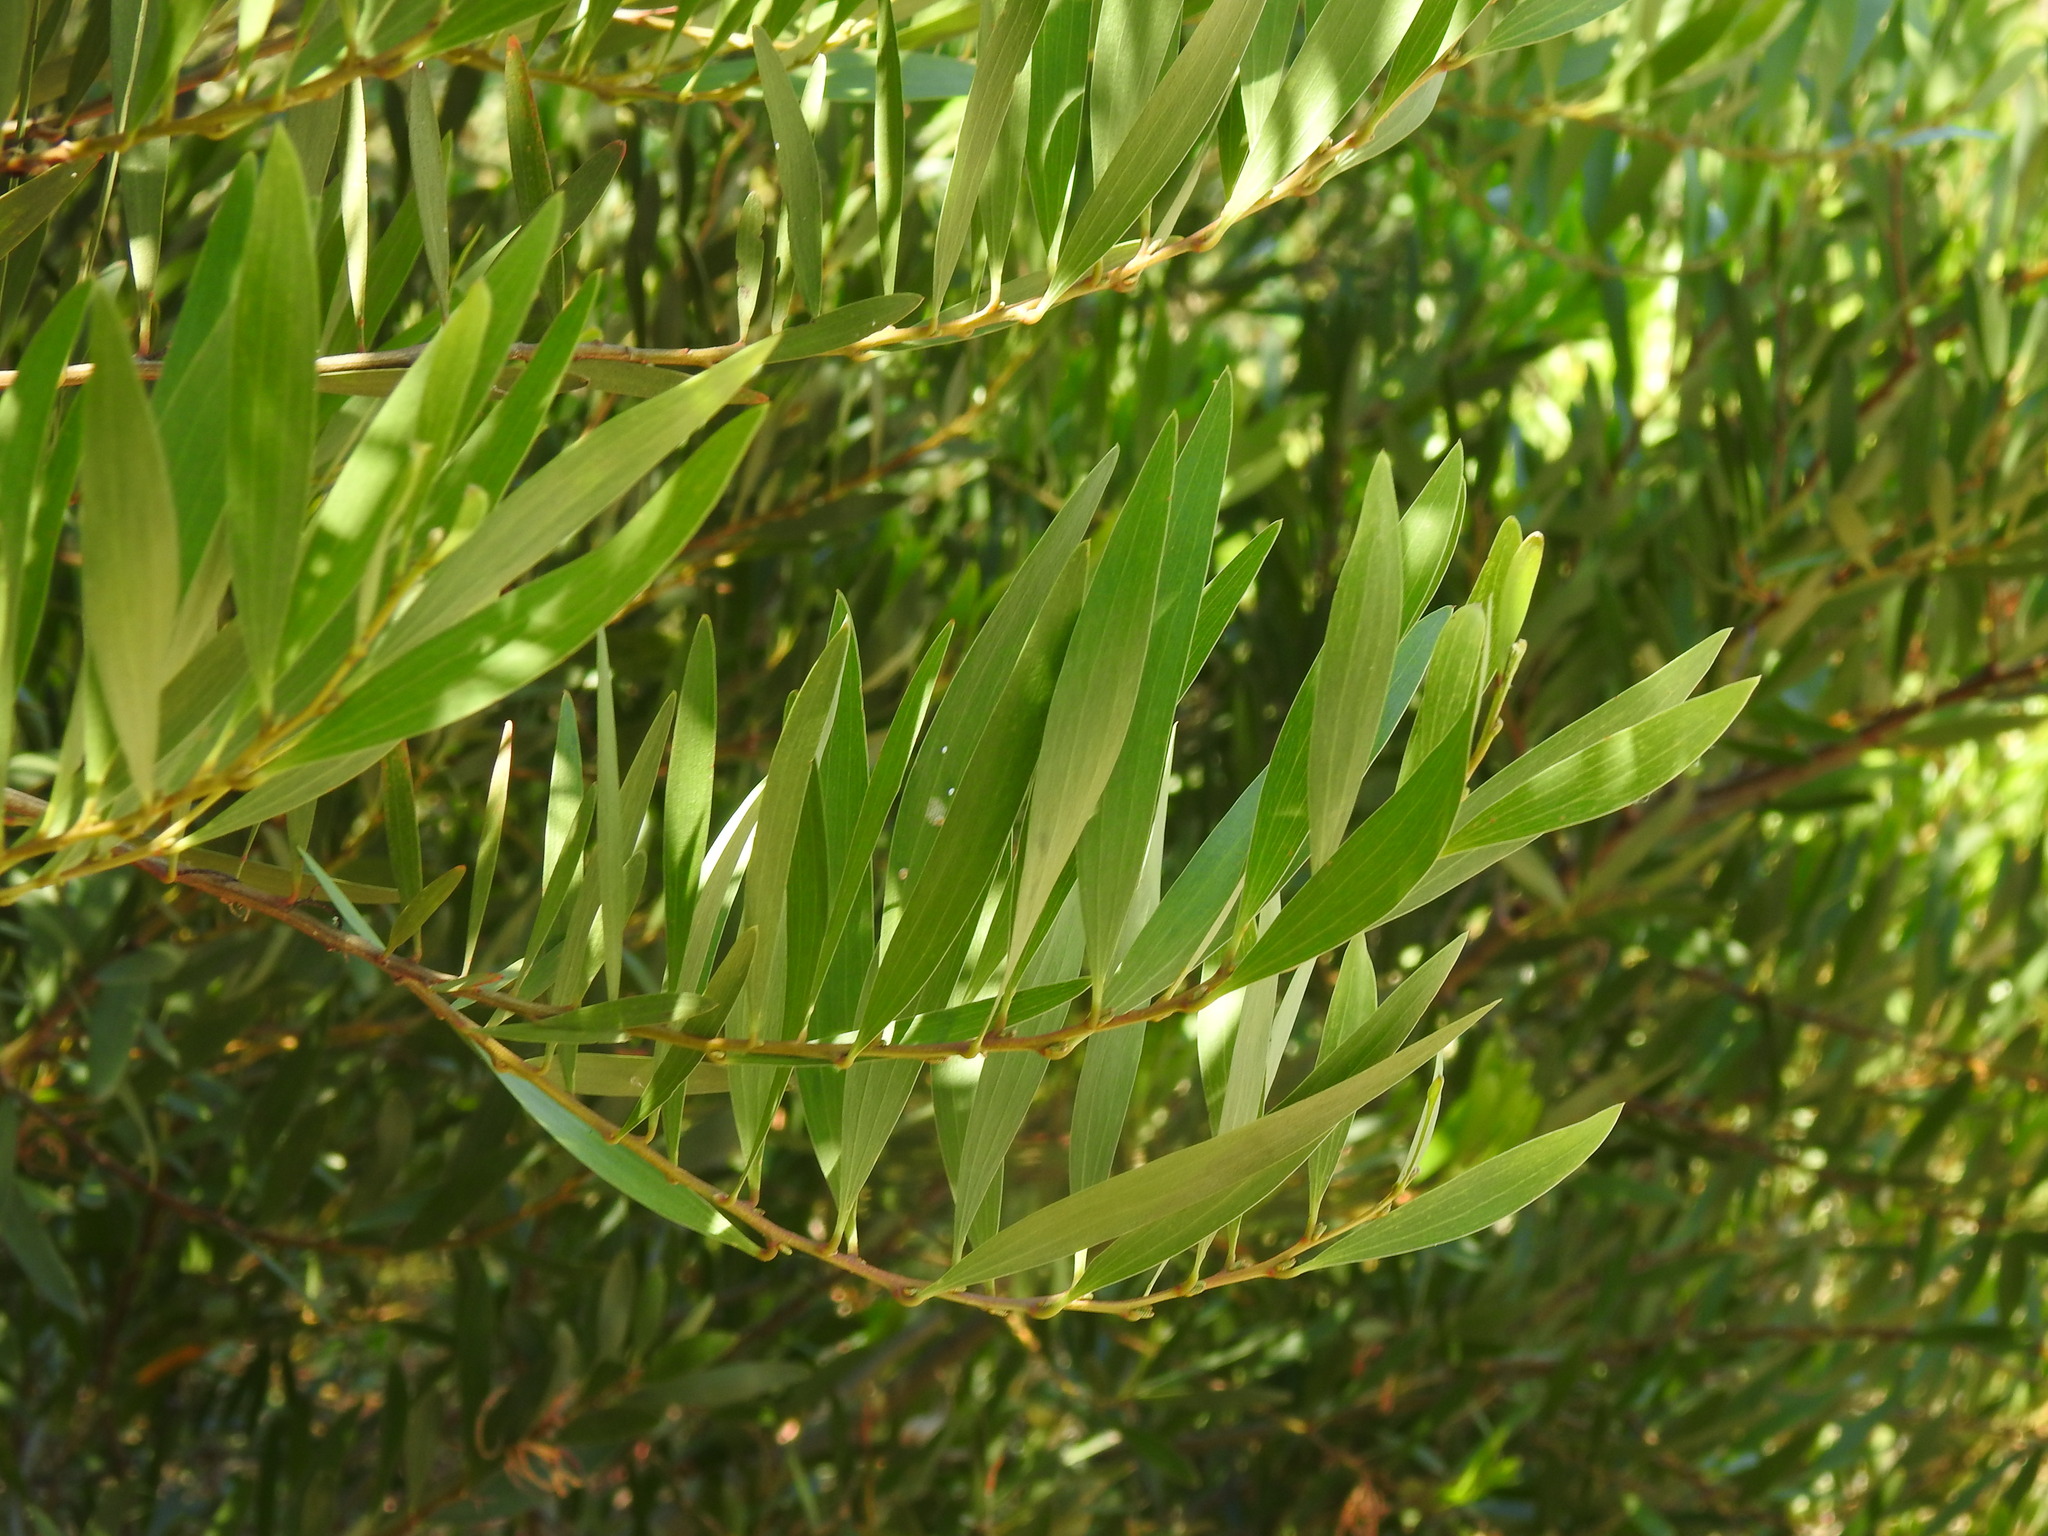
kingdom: Plantae
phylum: Tracheophyta
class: Magnoliopsida
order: Fabales
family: Fabaceae
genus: Acacia
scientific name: Acacia longifolia
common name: Sydney golden wattle
